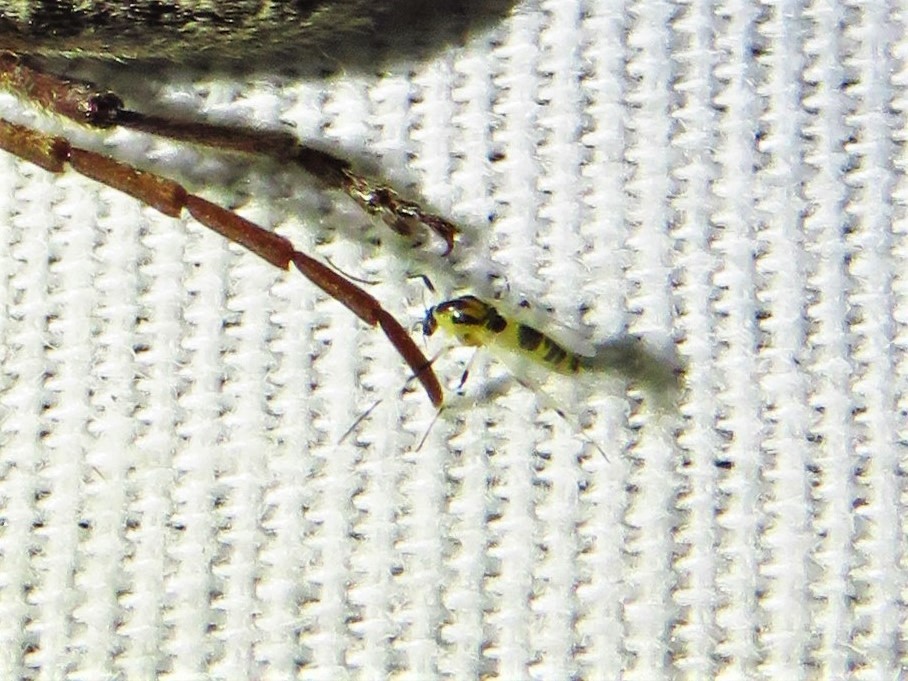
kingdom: Animalia
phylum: Arthropoda
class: Insecta
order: Diptera
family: Chironomidae
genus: Cricotopus
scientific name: Cricotopus sylvestris
